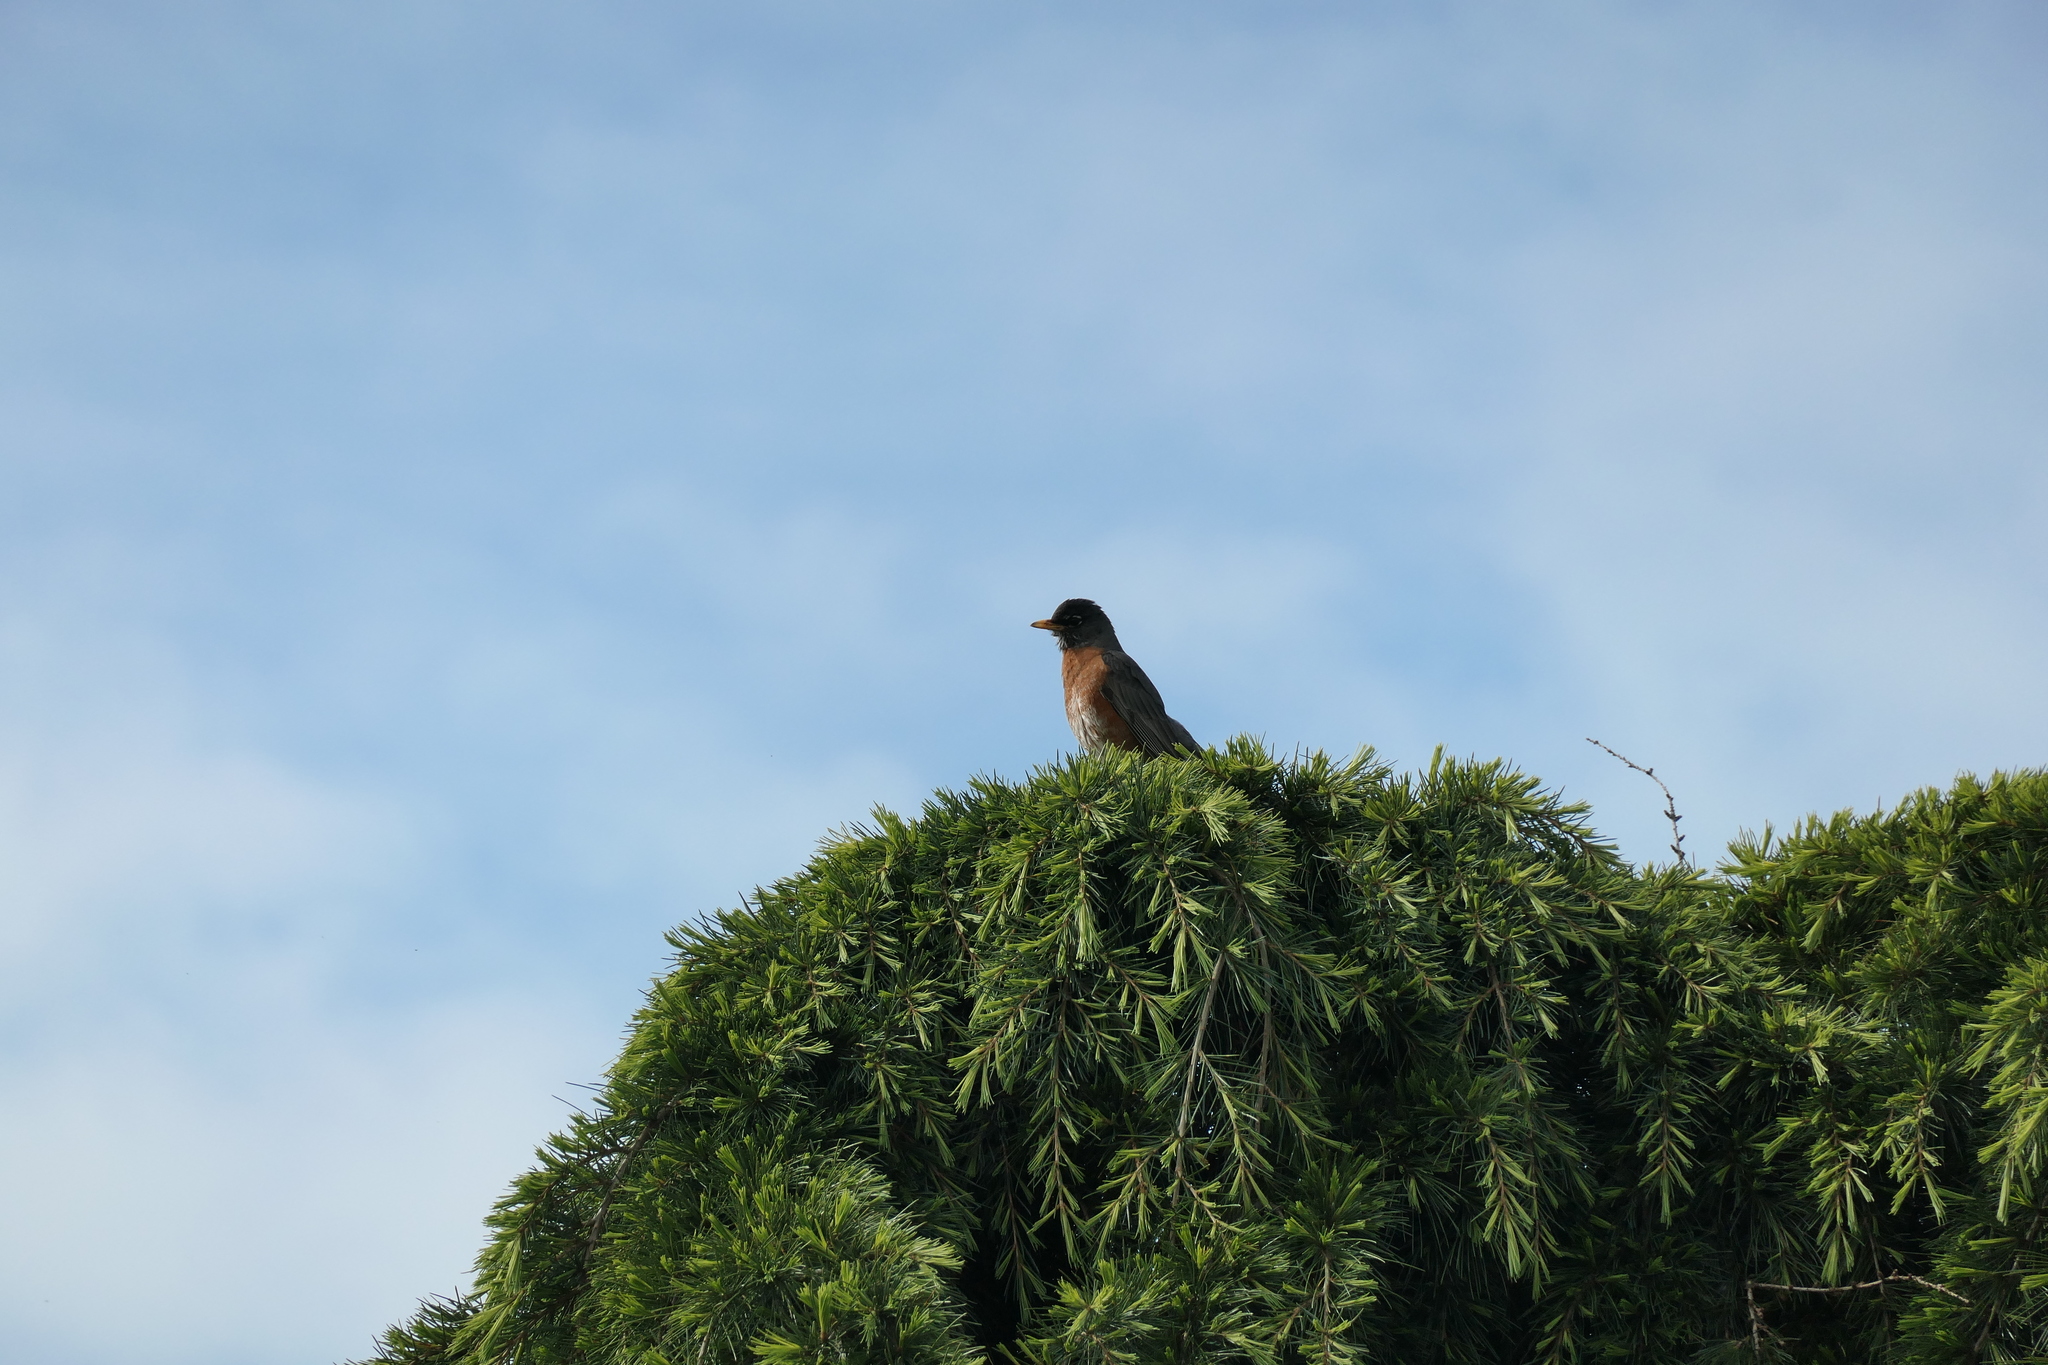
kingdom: Animalia
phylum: Chordata
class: Aves
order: Passeriformes
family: Turdidae
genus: Turdus
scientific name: Turdus migratorius
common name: American robin
